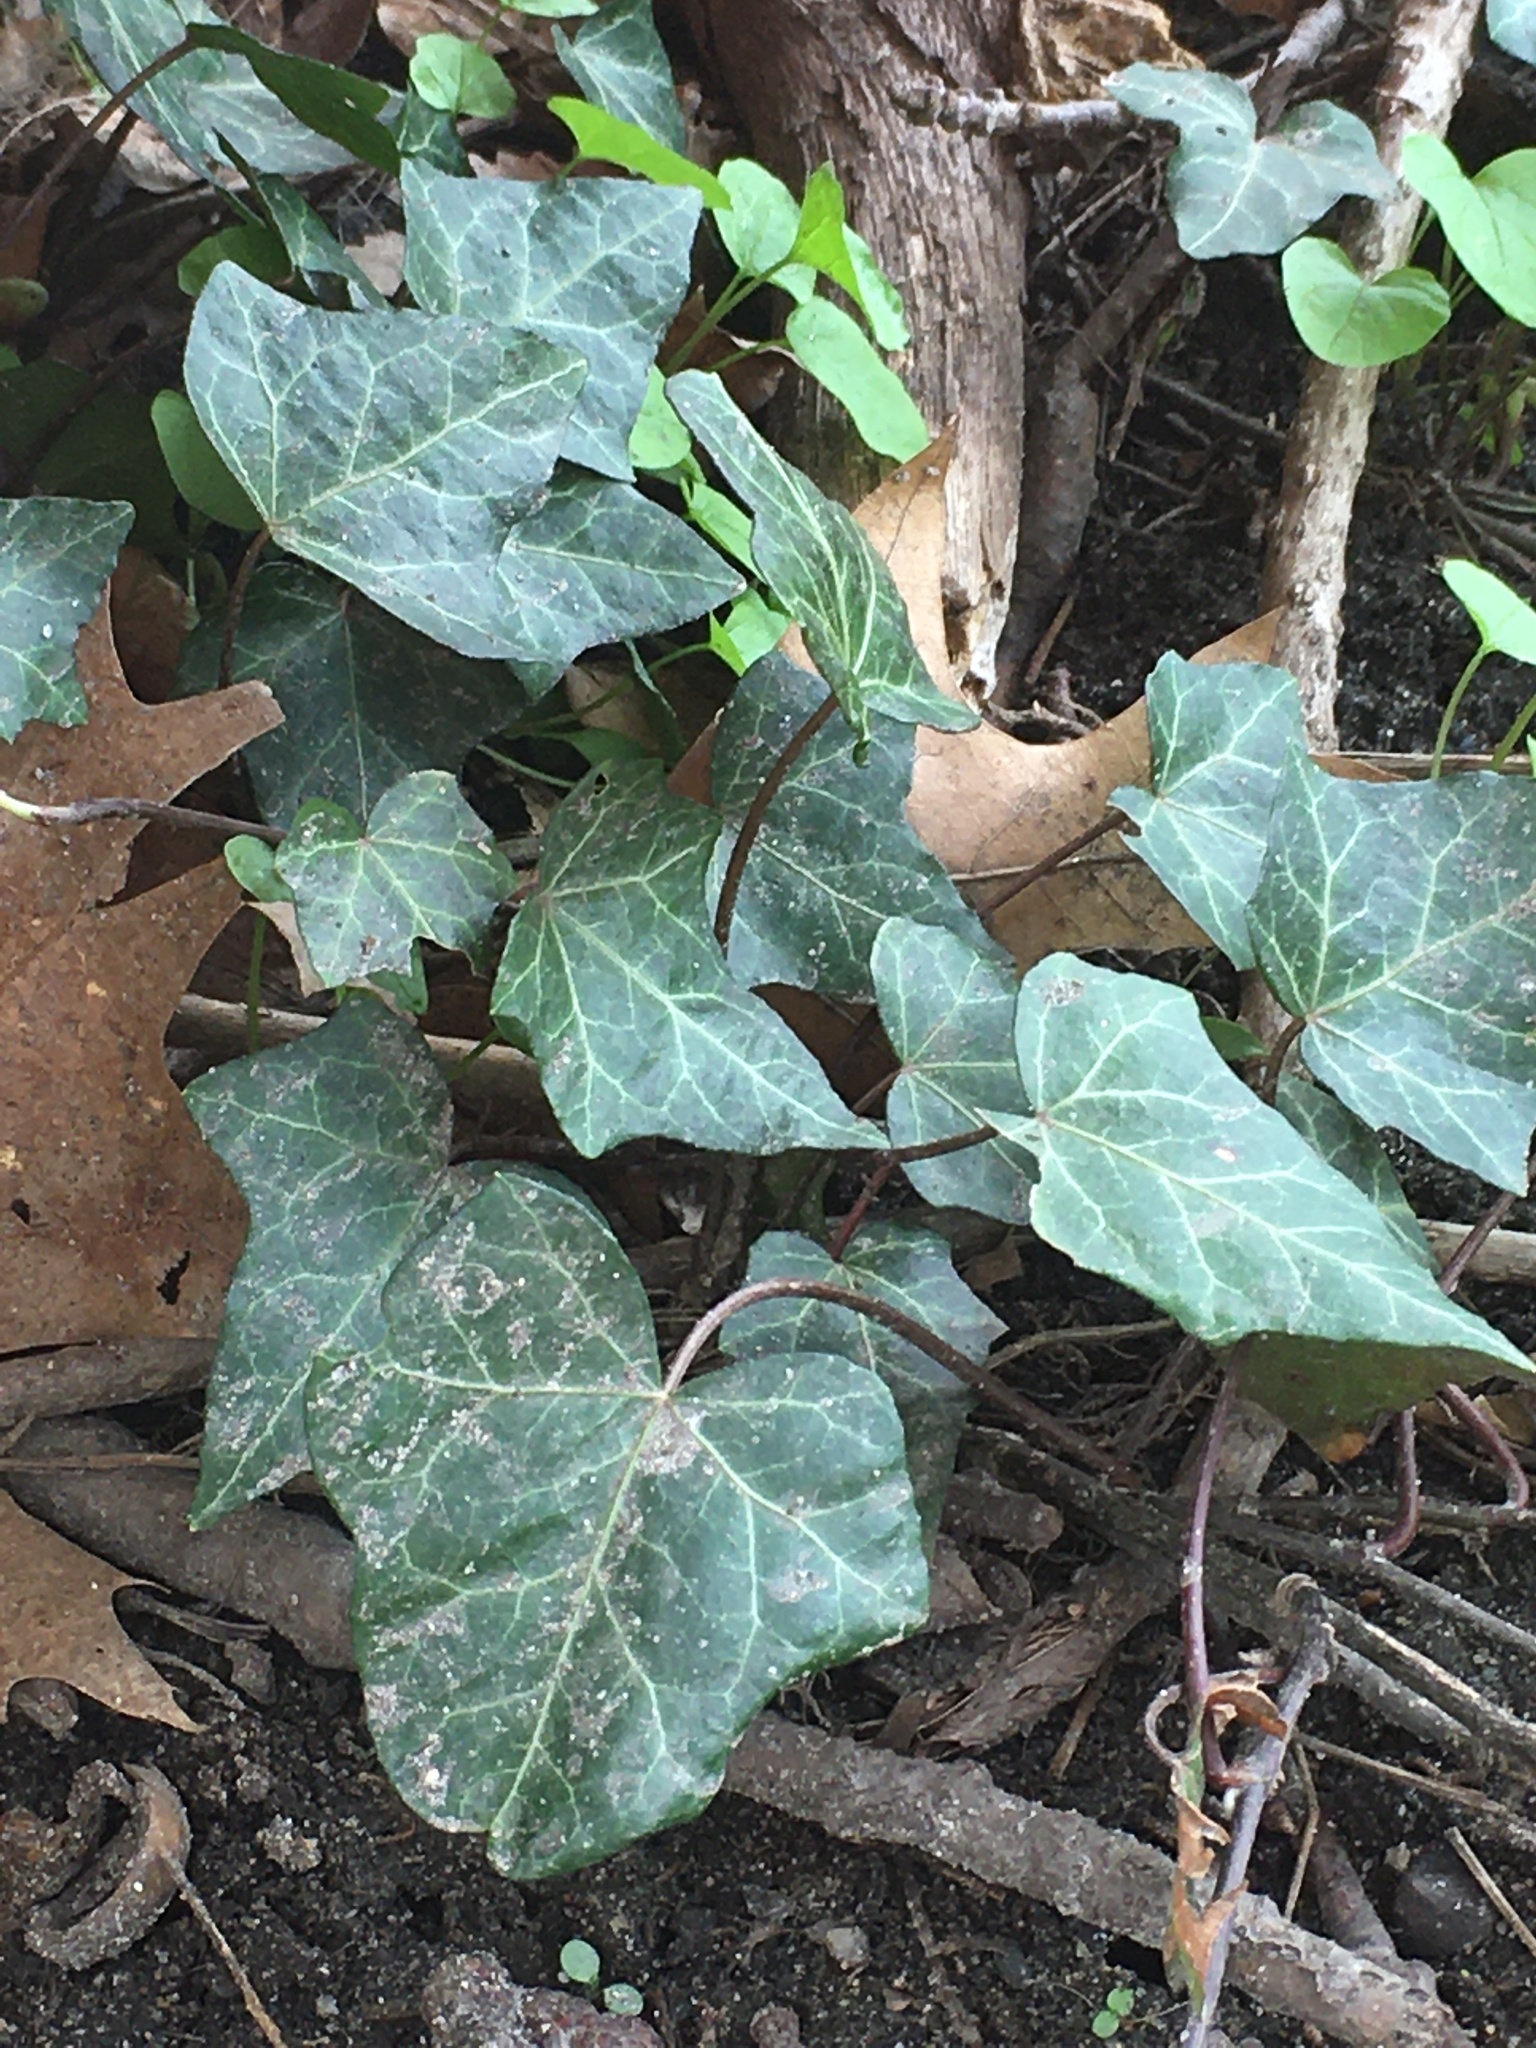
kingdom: Plantae
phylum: Tracheophyta
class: Magnoliopsida
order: Apiales
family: Araliaceae
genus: Hedera
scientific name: Hedera helix
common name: Ivy
